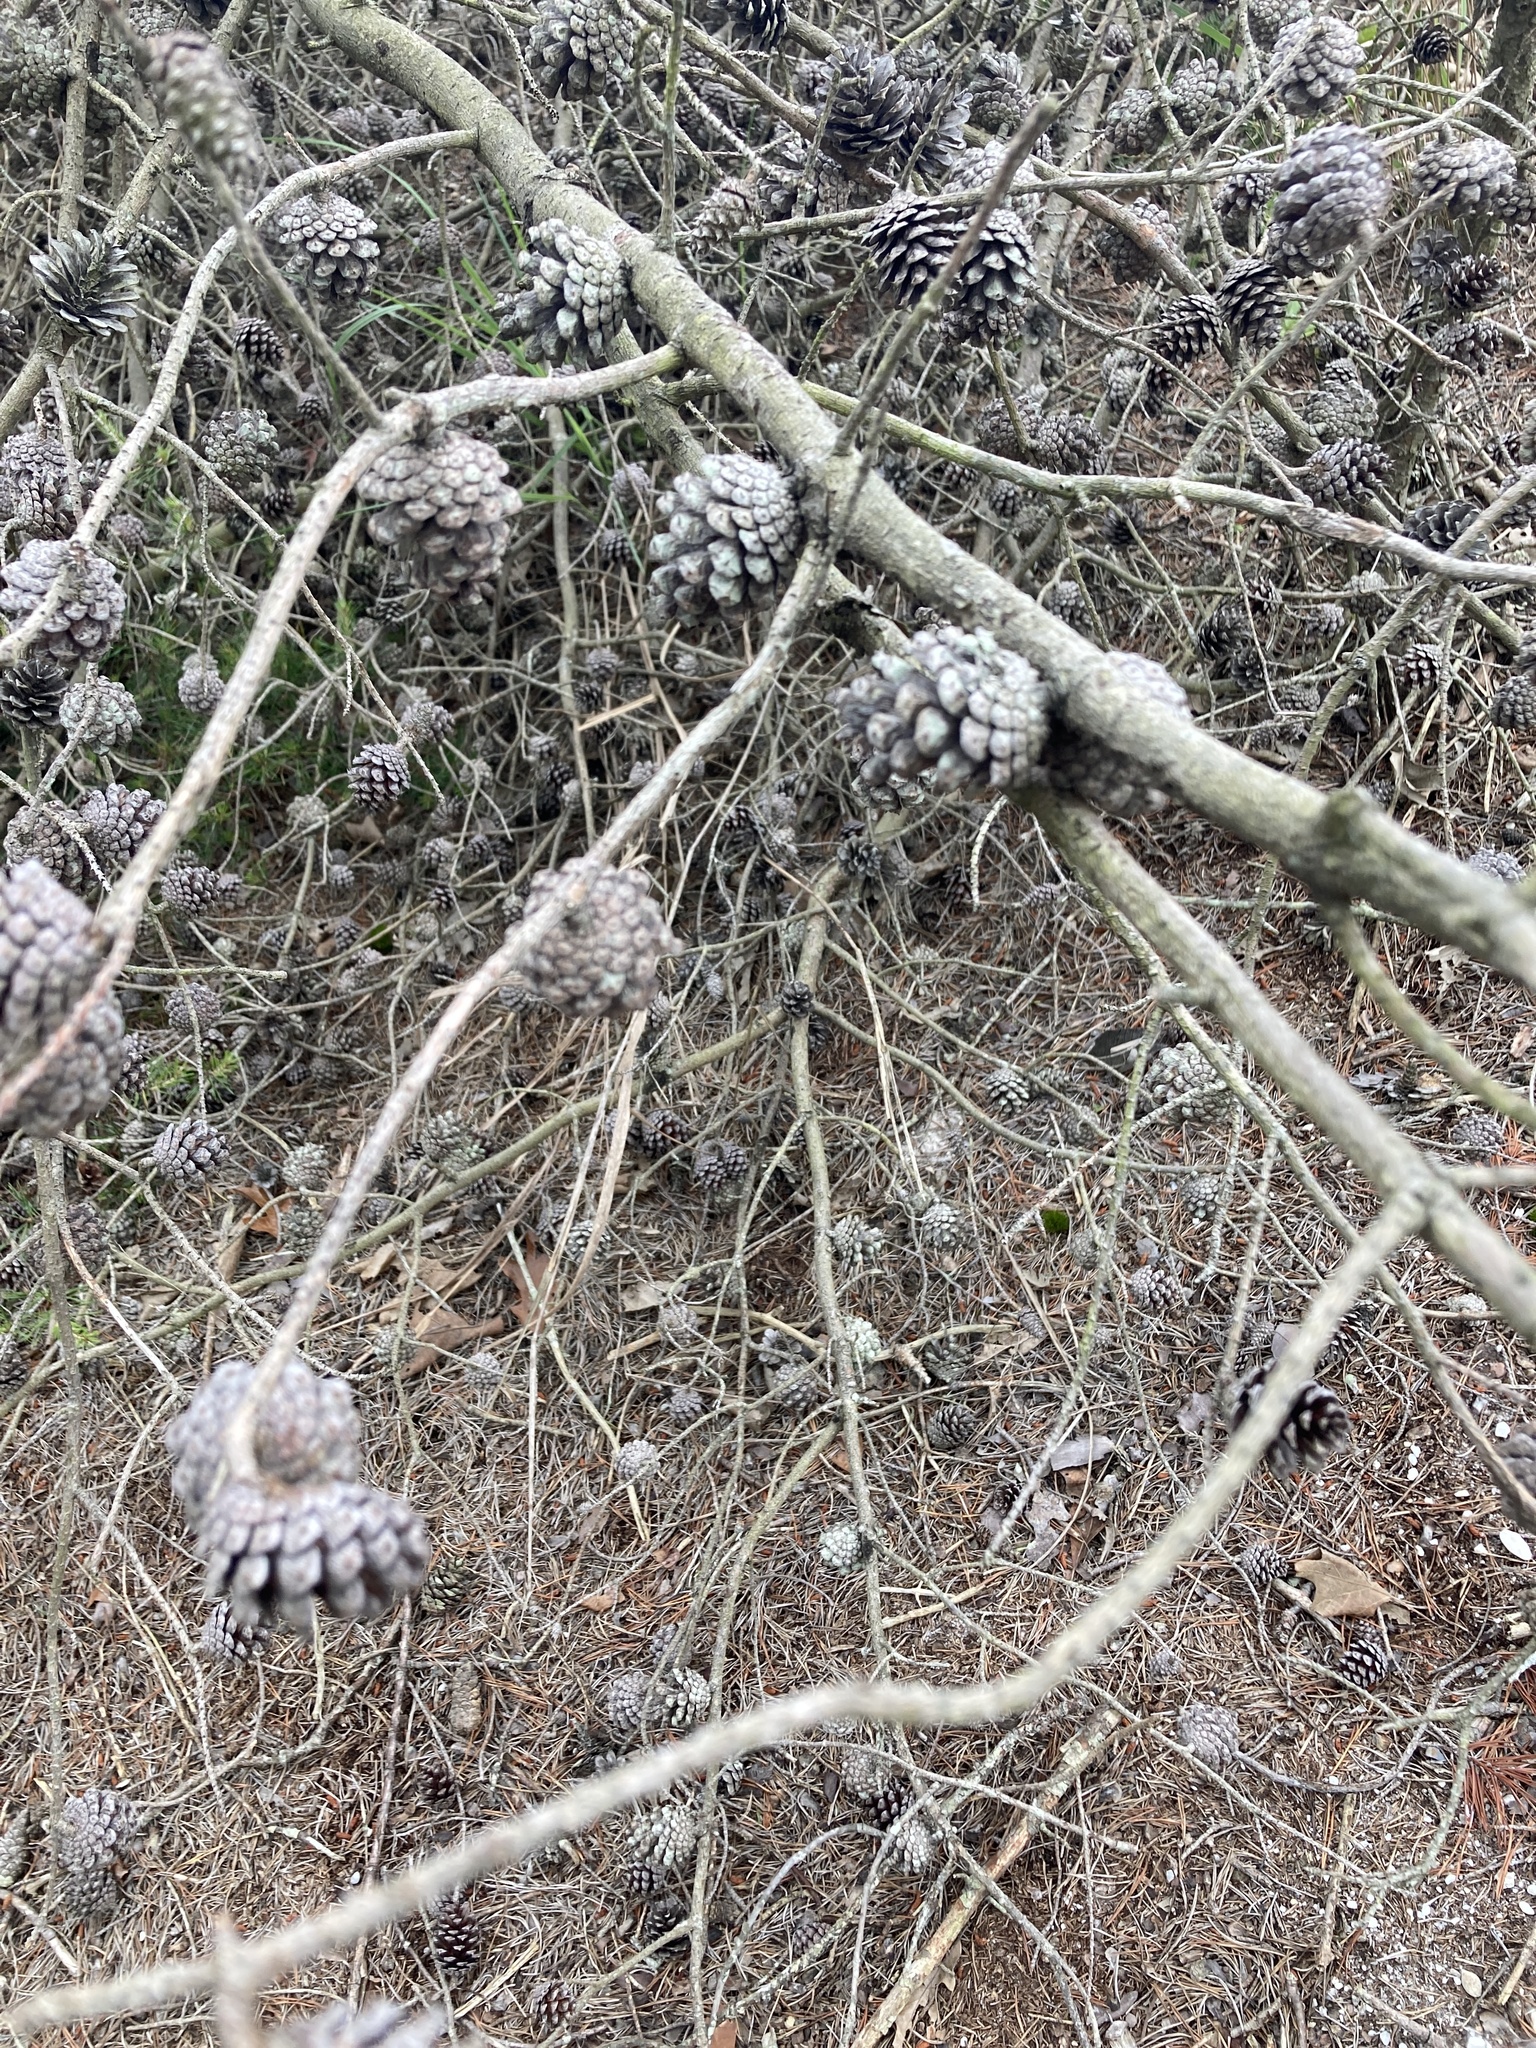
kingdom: Plantae
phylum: Tracheophyta
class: Pinopsida
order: Pinales
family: Pinaceae
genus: Pinus
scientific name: Pinus virginiana
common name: Scrub pine
